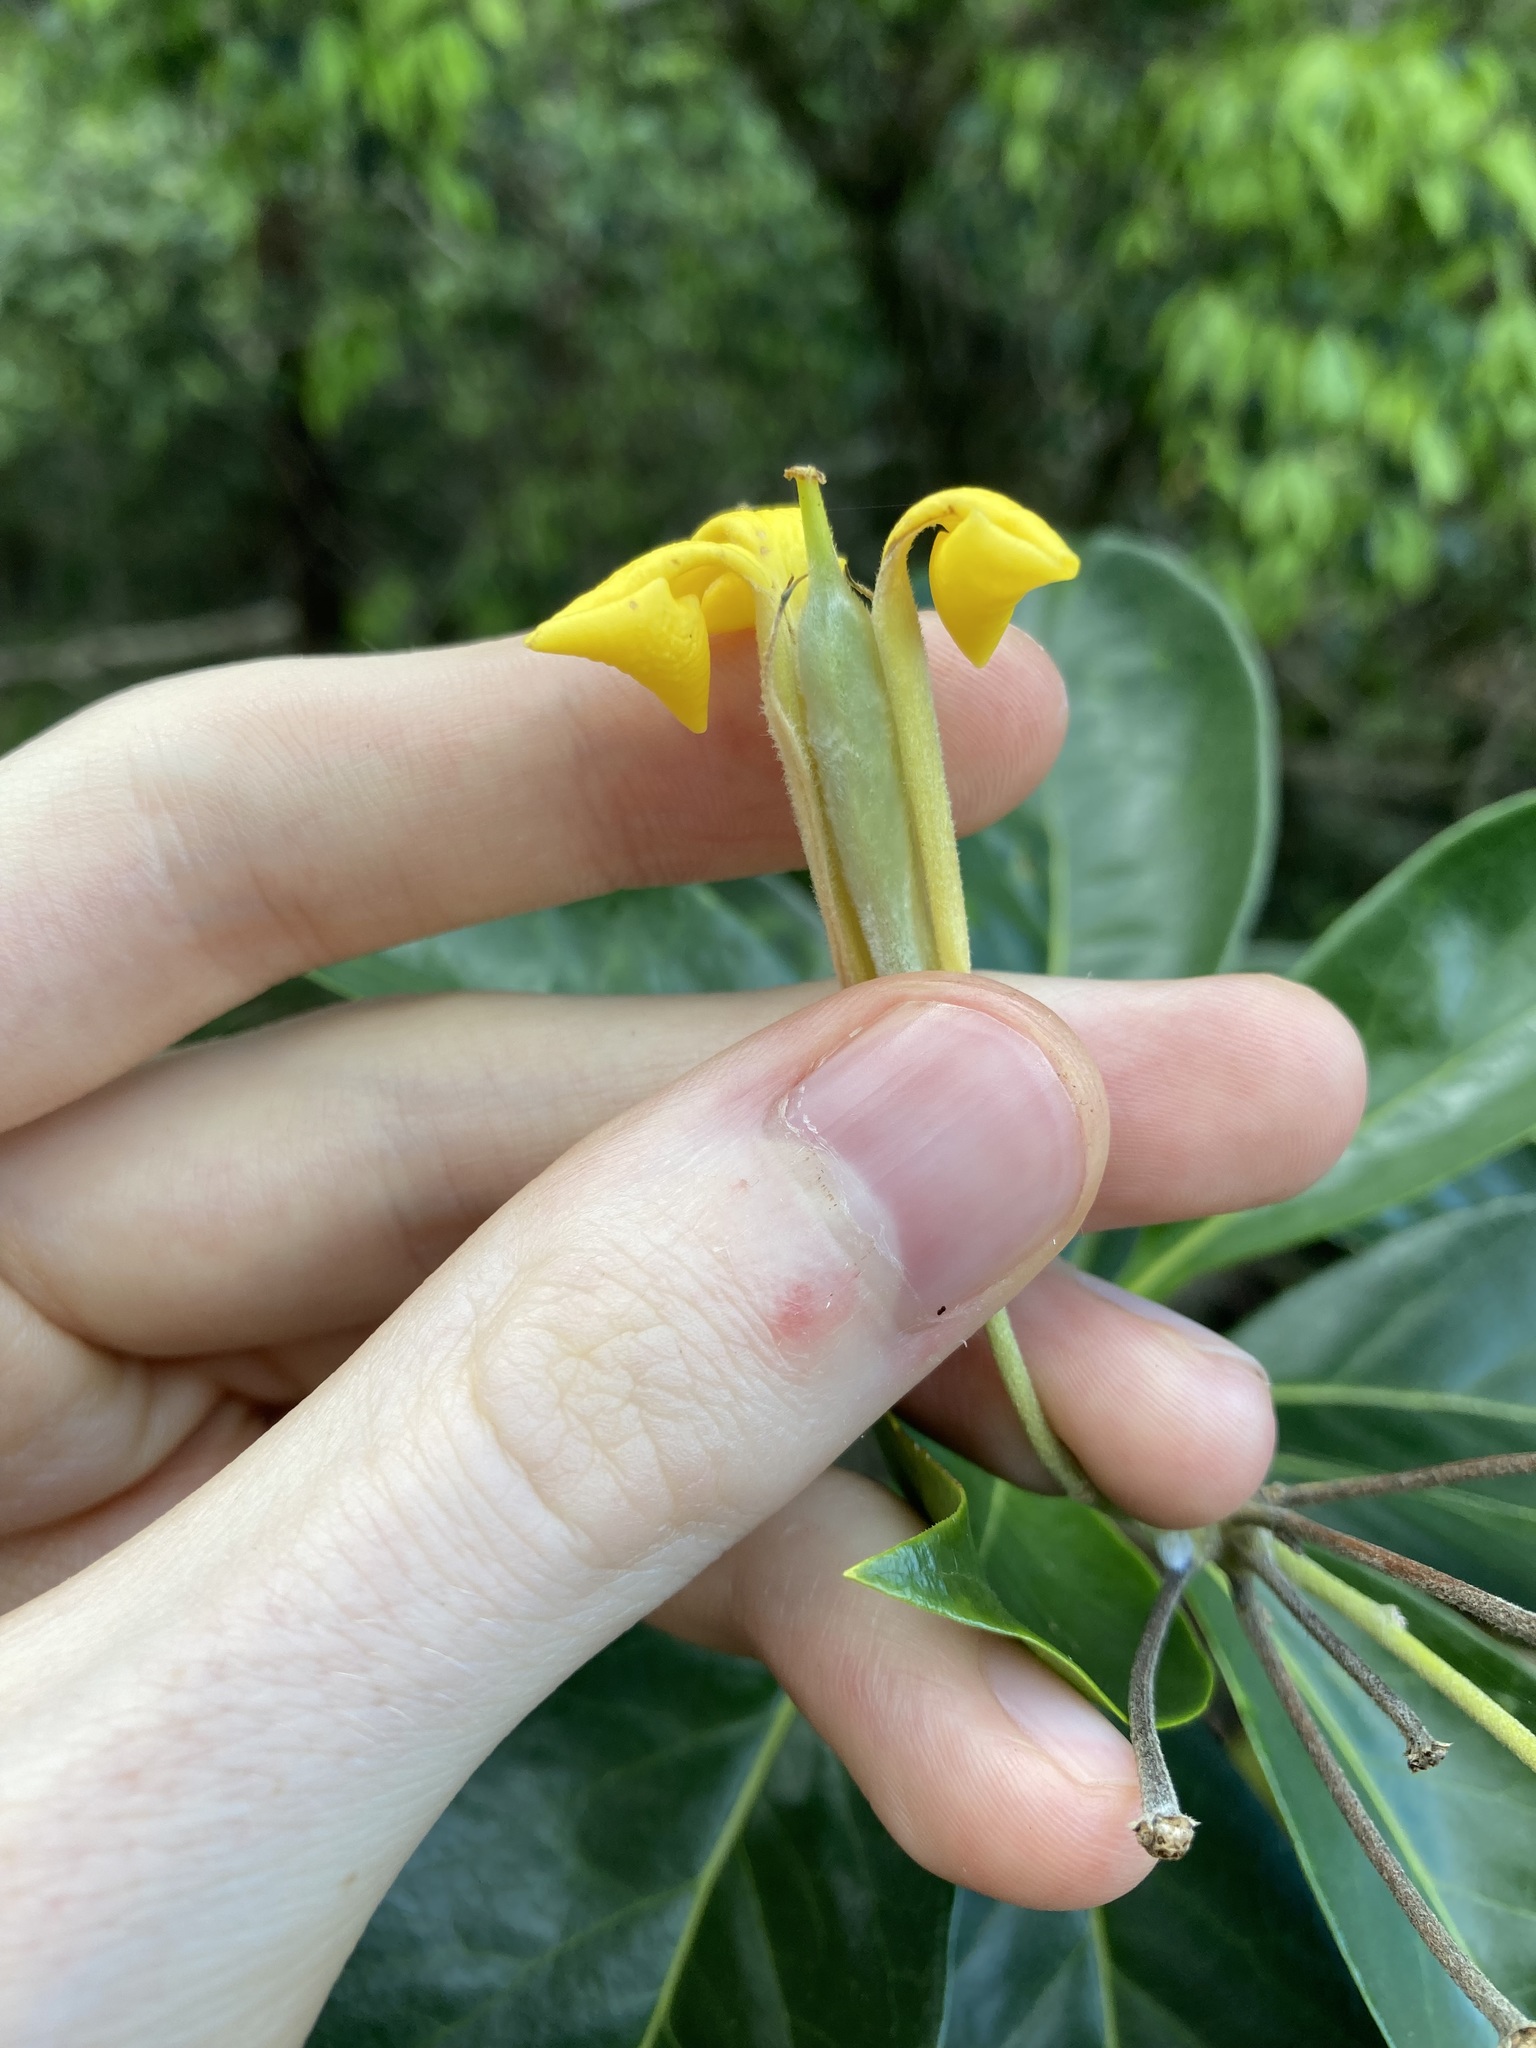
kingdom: Plantae
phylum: Tracheophyta
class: Magnoliopsida
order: Apiales
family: Pittosporaceae
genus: Hymenosporum
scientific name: Hymenosporum flavum
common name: Native frangipani
